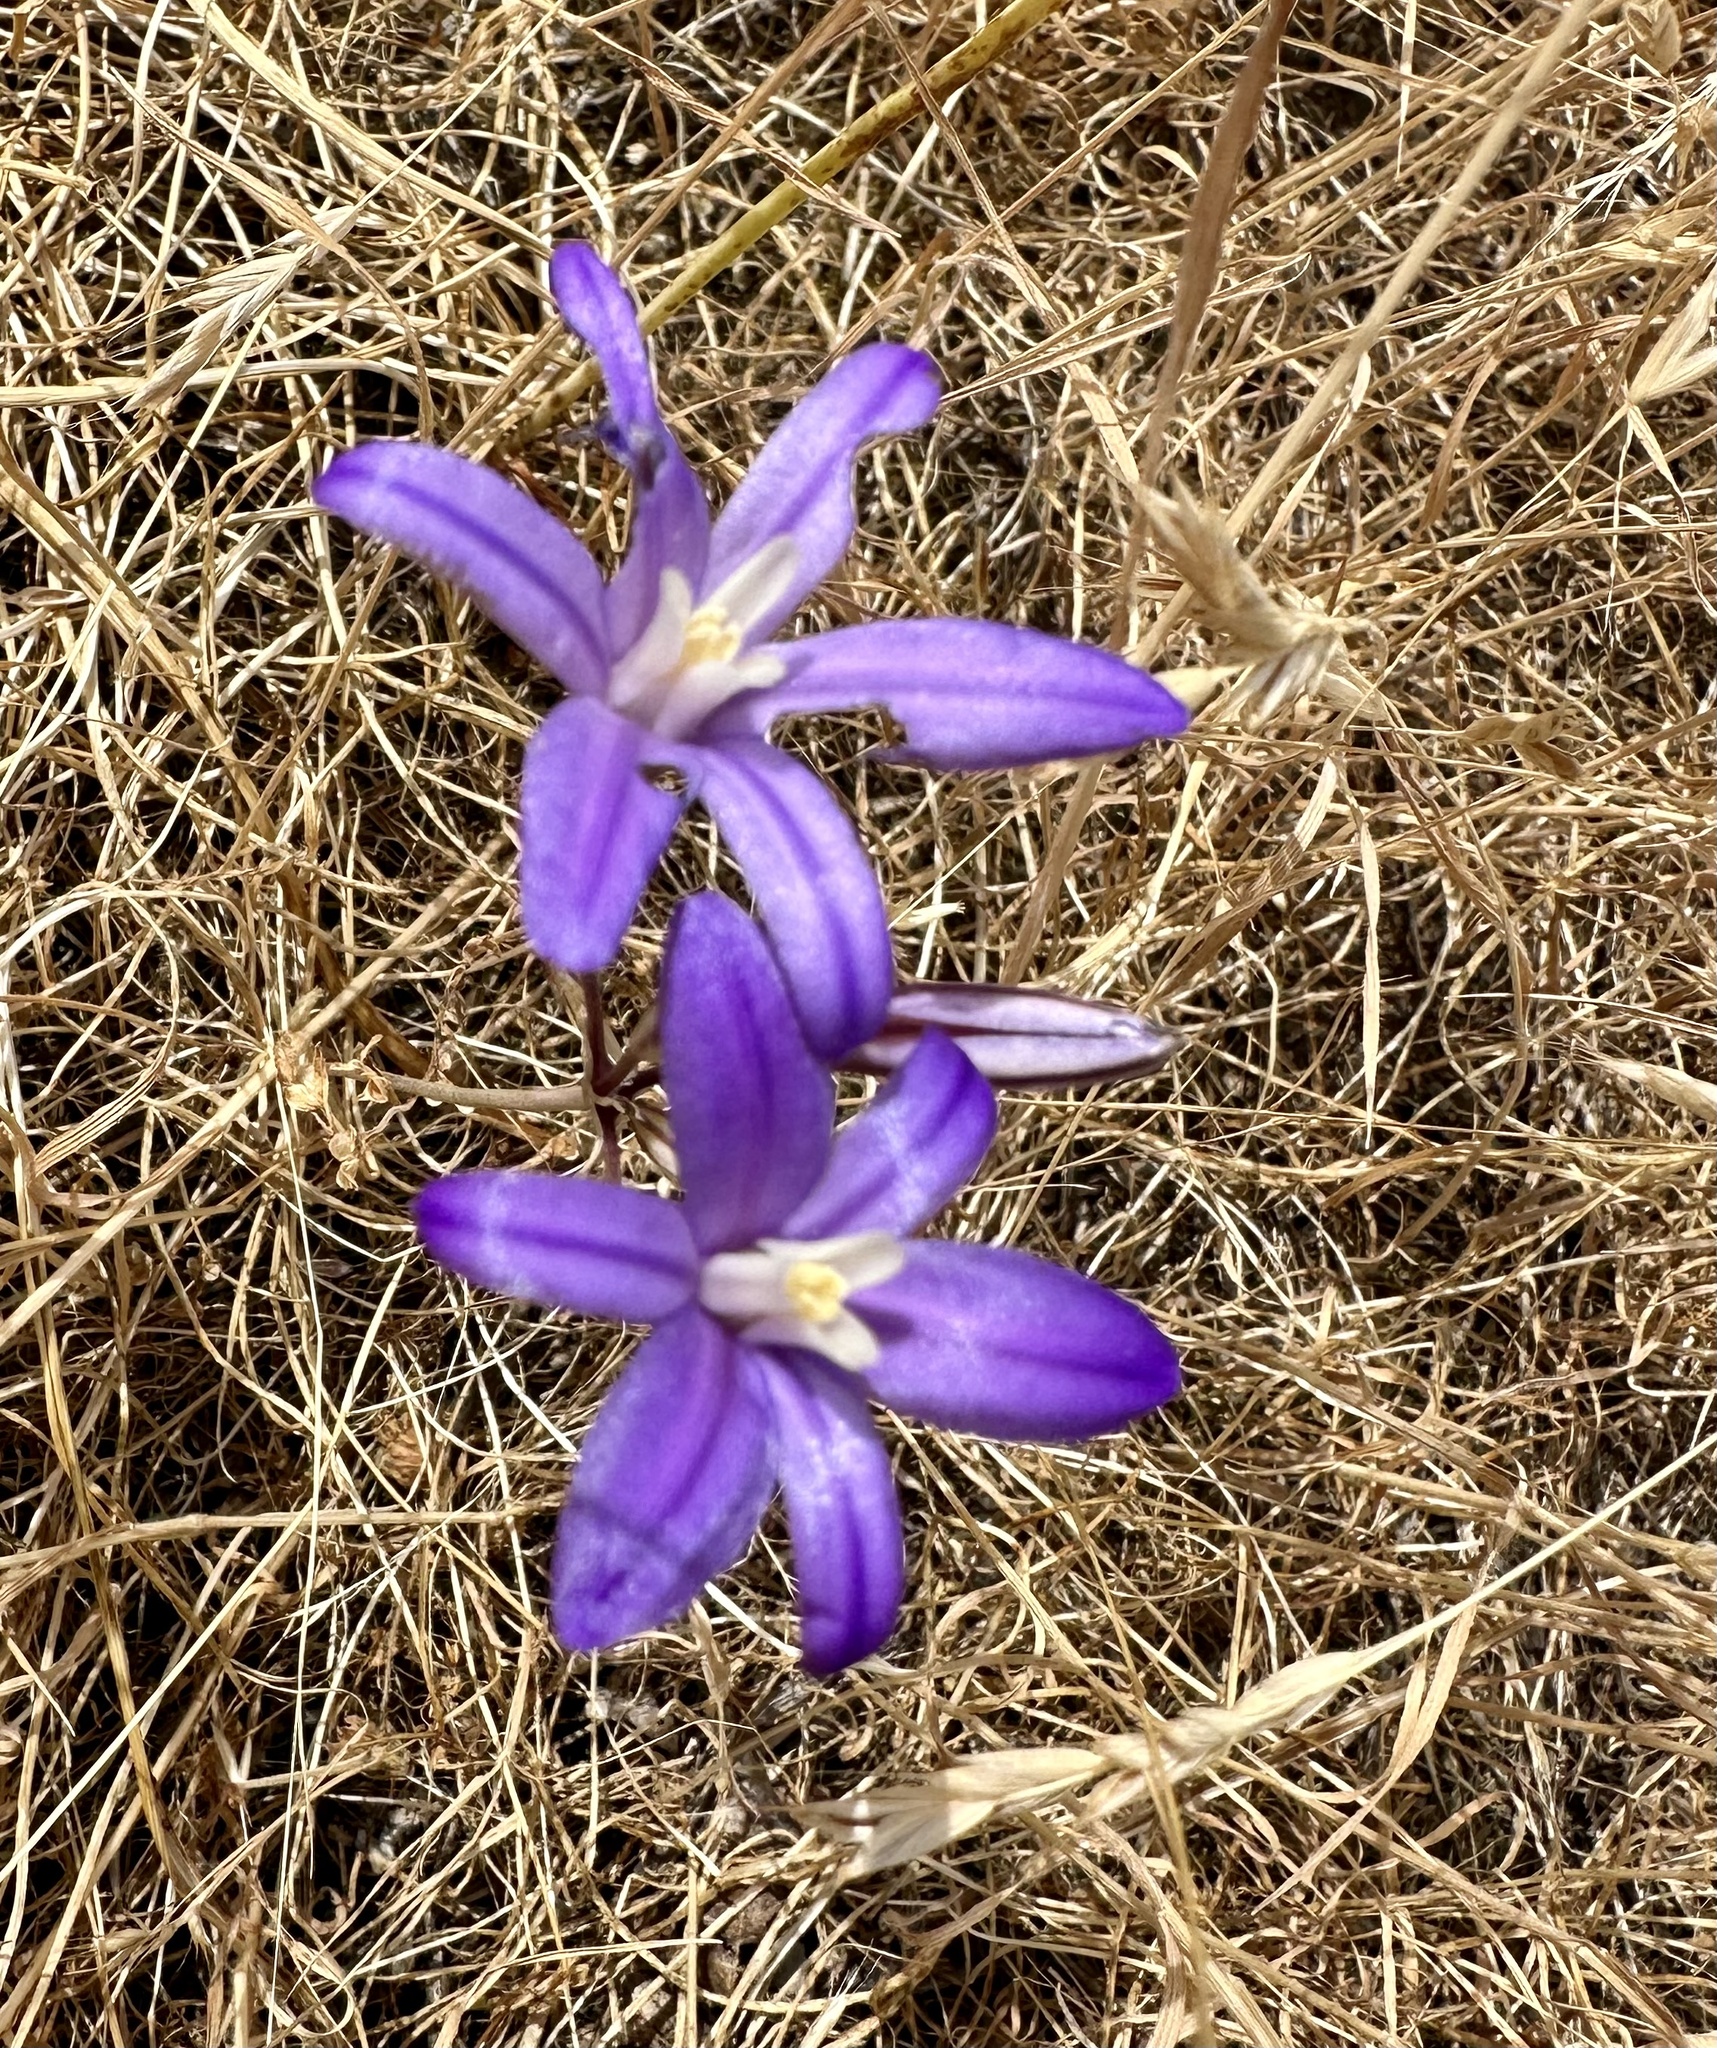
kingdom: Plantae
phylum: Tracheophyta
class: Liliopsida
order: Asparagales
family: Asparagaceae
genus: Brodiaea
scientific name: Brodiaea coronaria
